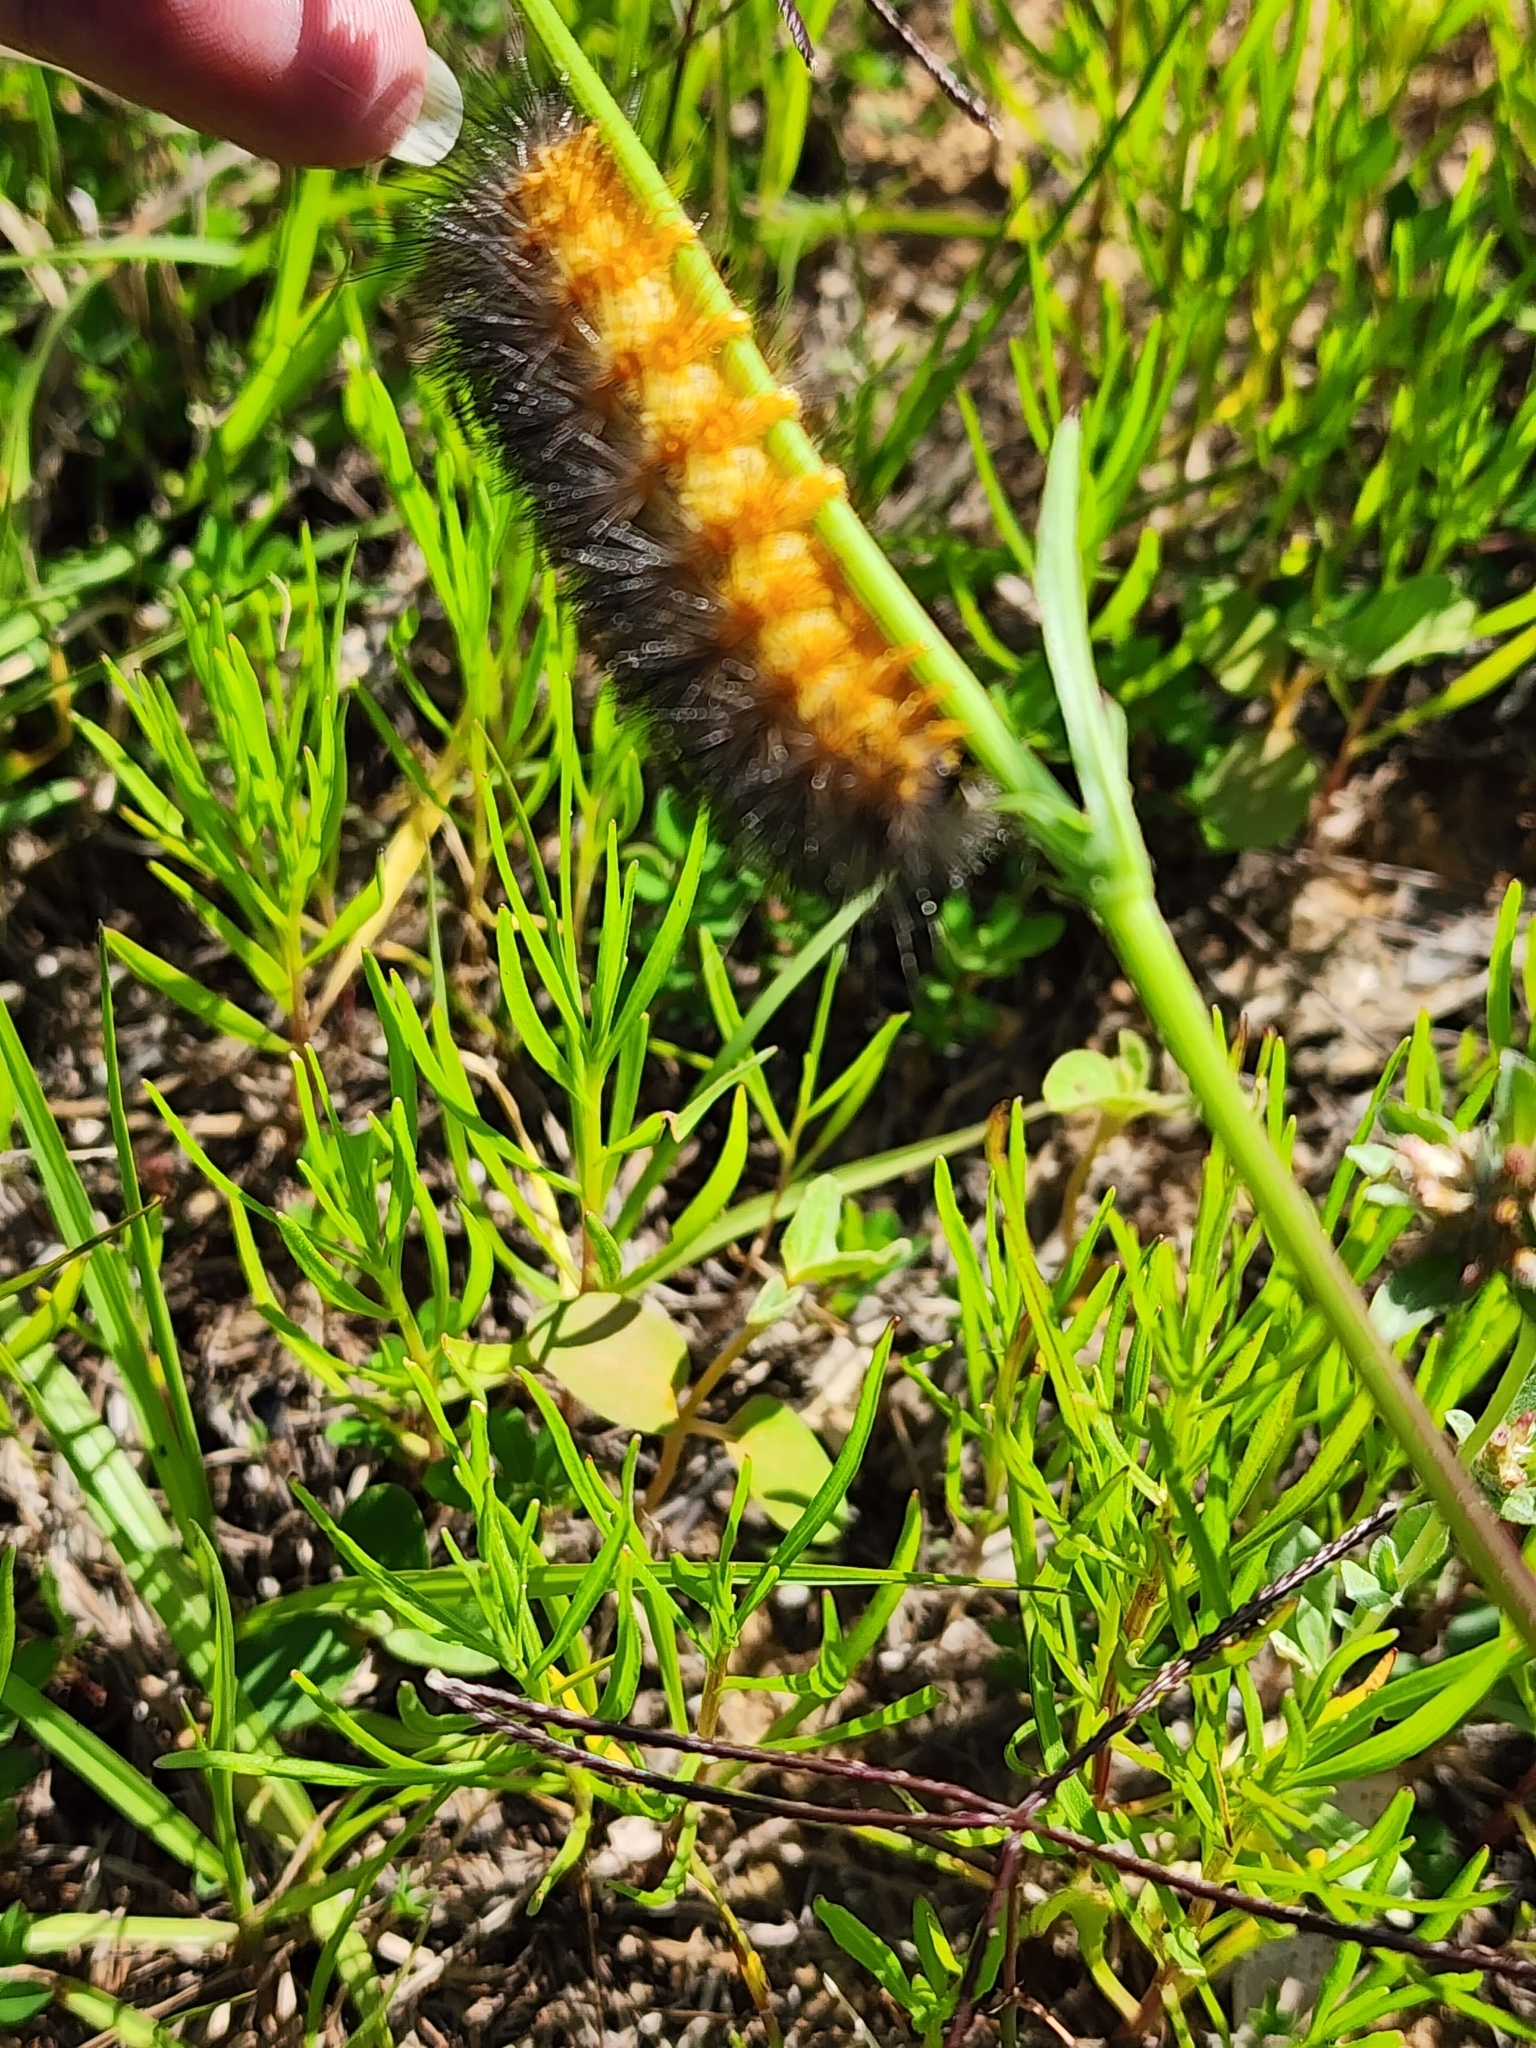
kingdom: Animalia
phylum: Arthropoda
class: Insecta
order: Lepidoptera
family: Erebidae
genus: Estigmene
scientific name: Estigmene acrea
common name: Salt marsh moth
